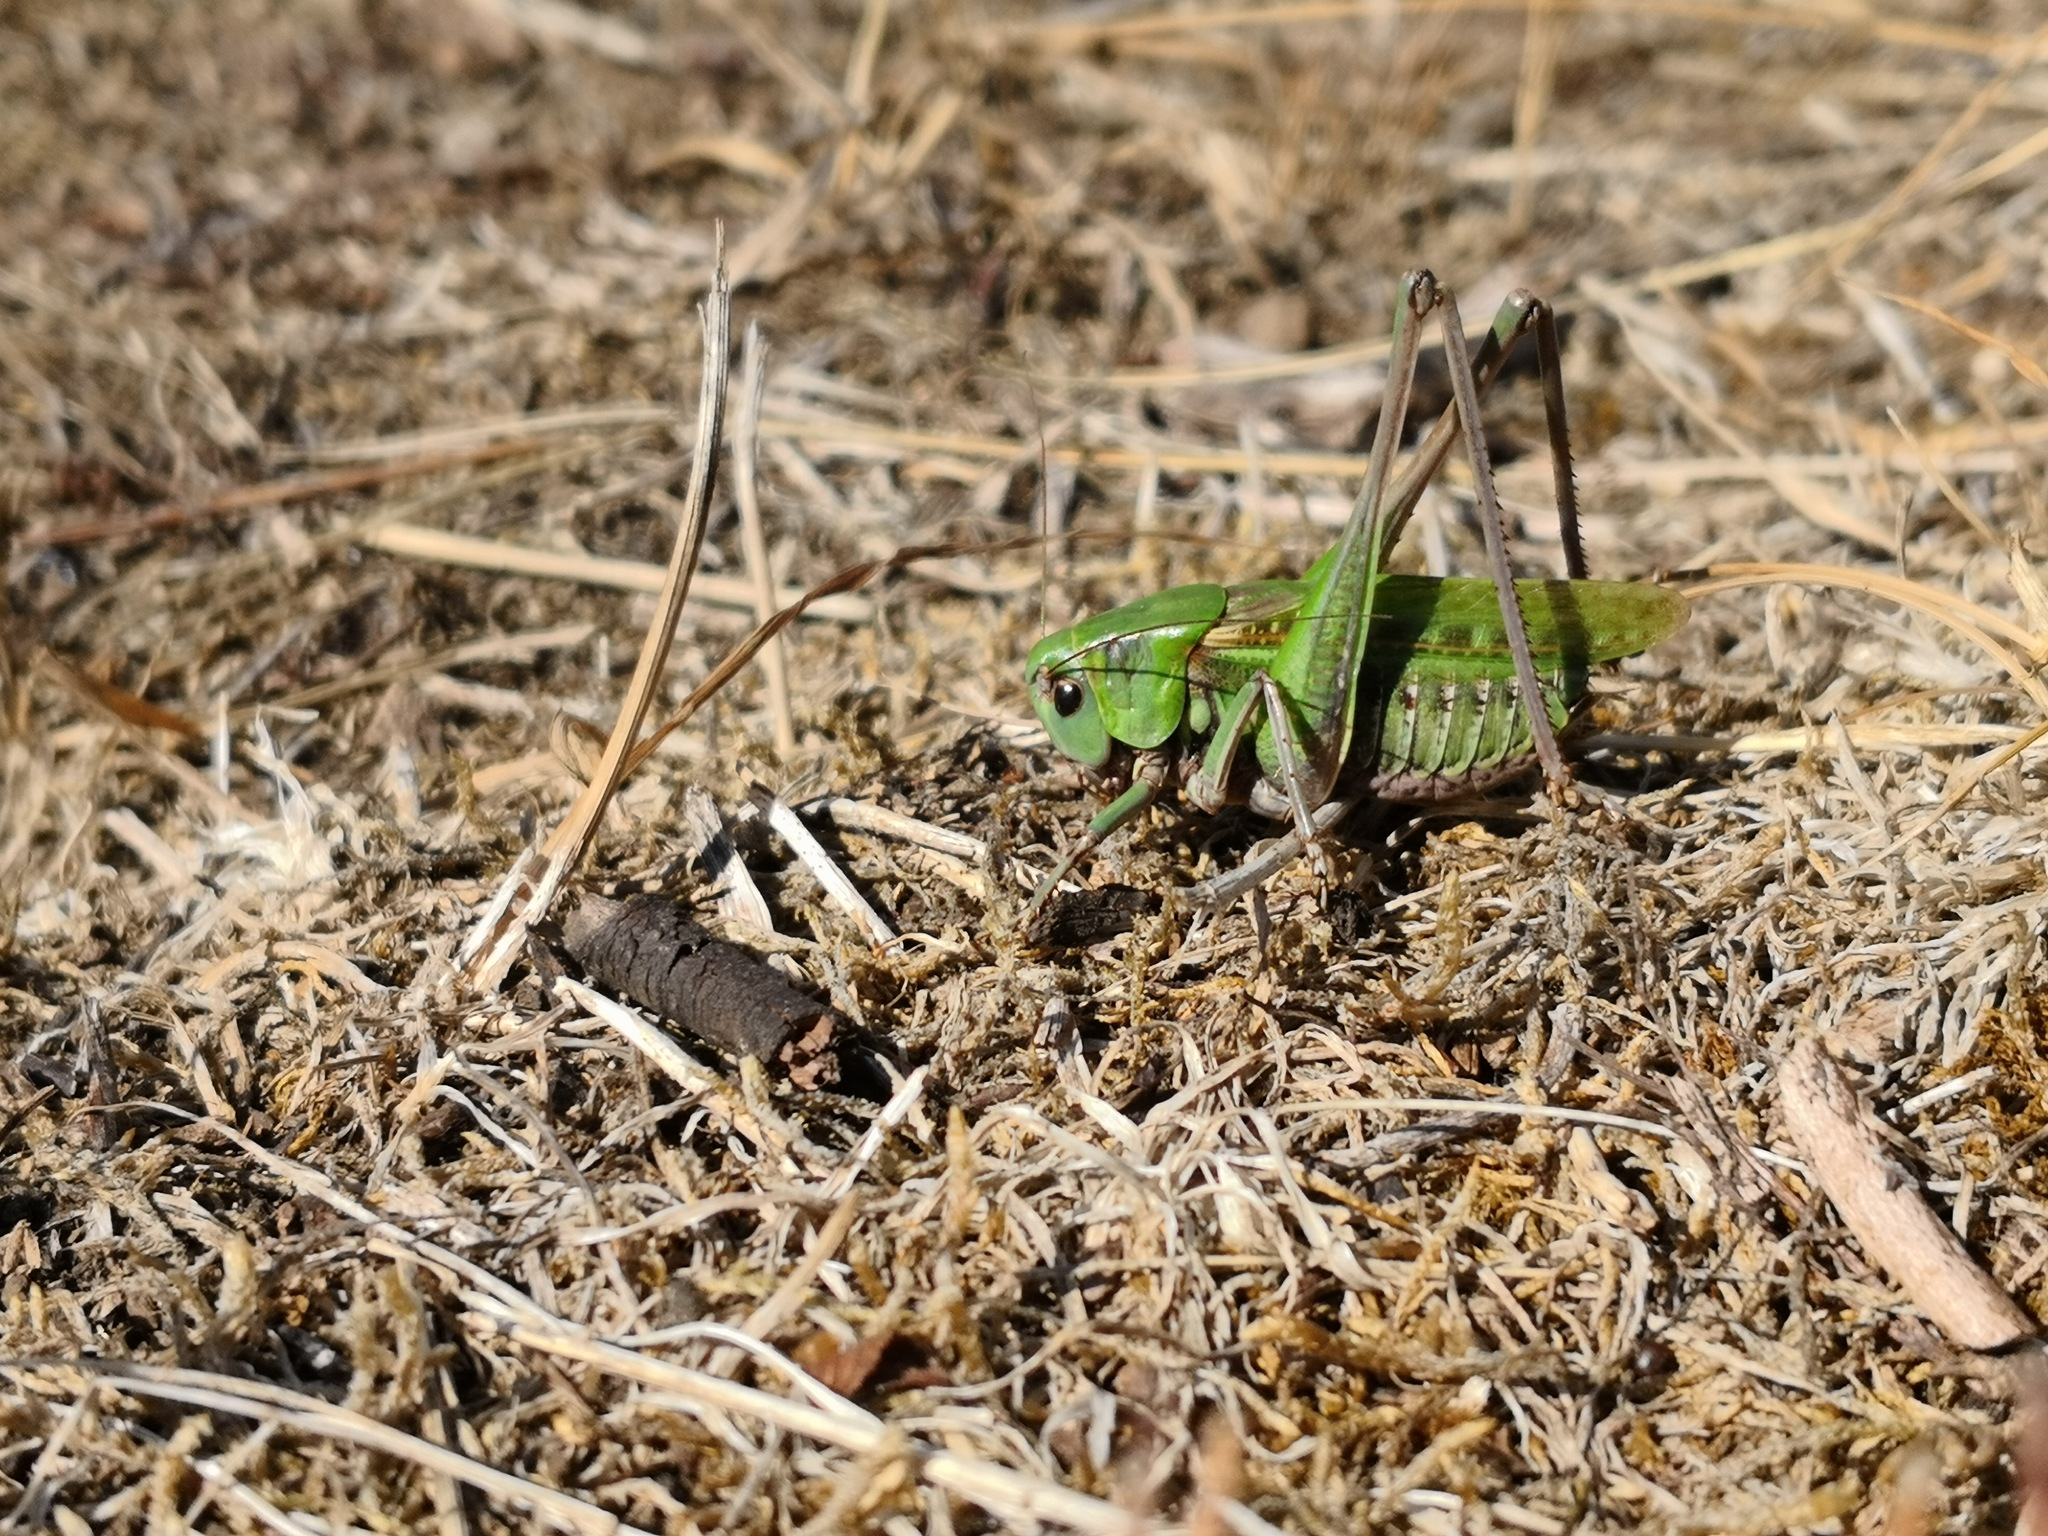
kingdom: Animalia
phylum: Arthropoda
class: Insecta
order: Orthoptera
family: Tettigoniidae
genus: Decticus
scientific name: Decticus verrucivorus
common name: Wart-biter
